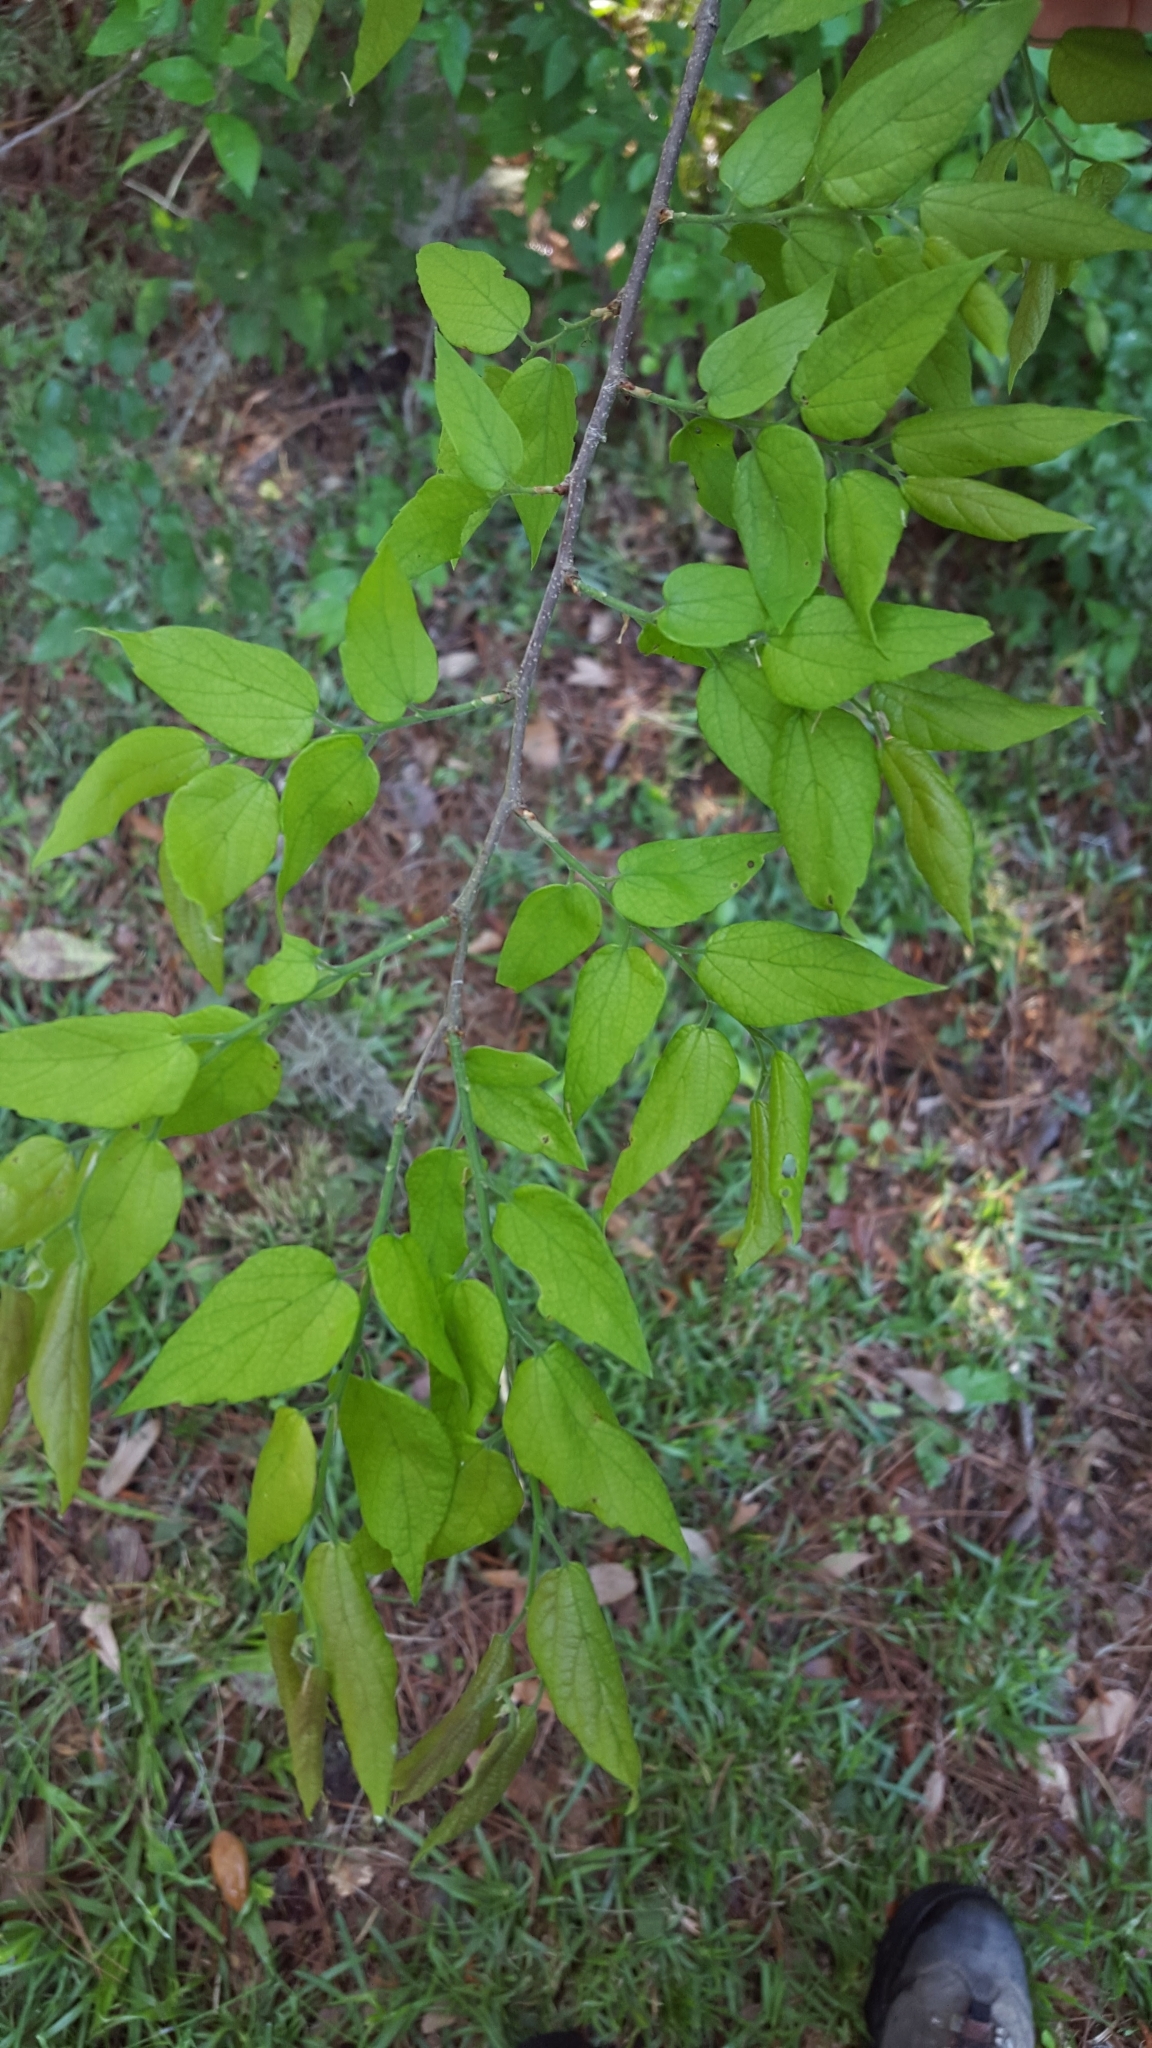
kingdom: Plantae
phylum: Tracheophyta
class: Magnoliopsida
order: Rosales
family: Cannabaceae
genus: Celtis
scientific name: Celtis laevigata
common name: Sugarberry
